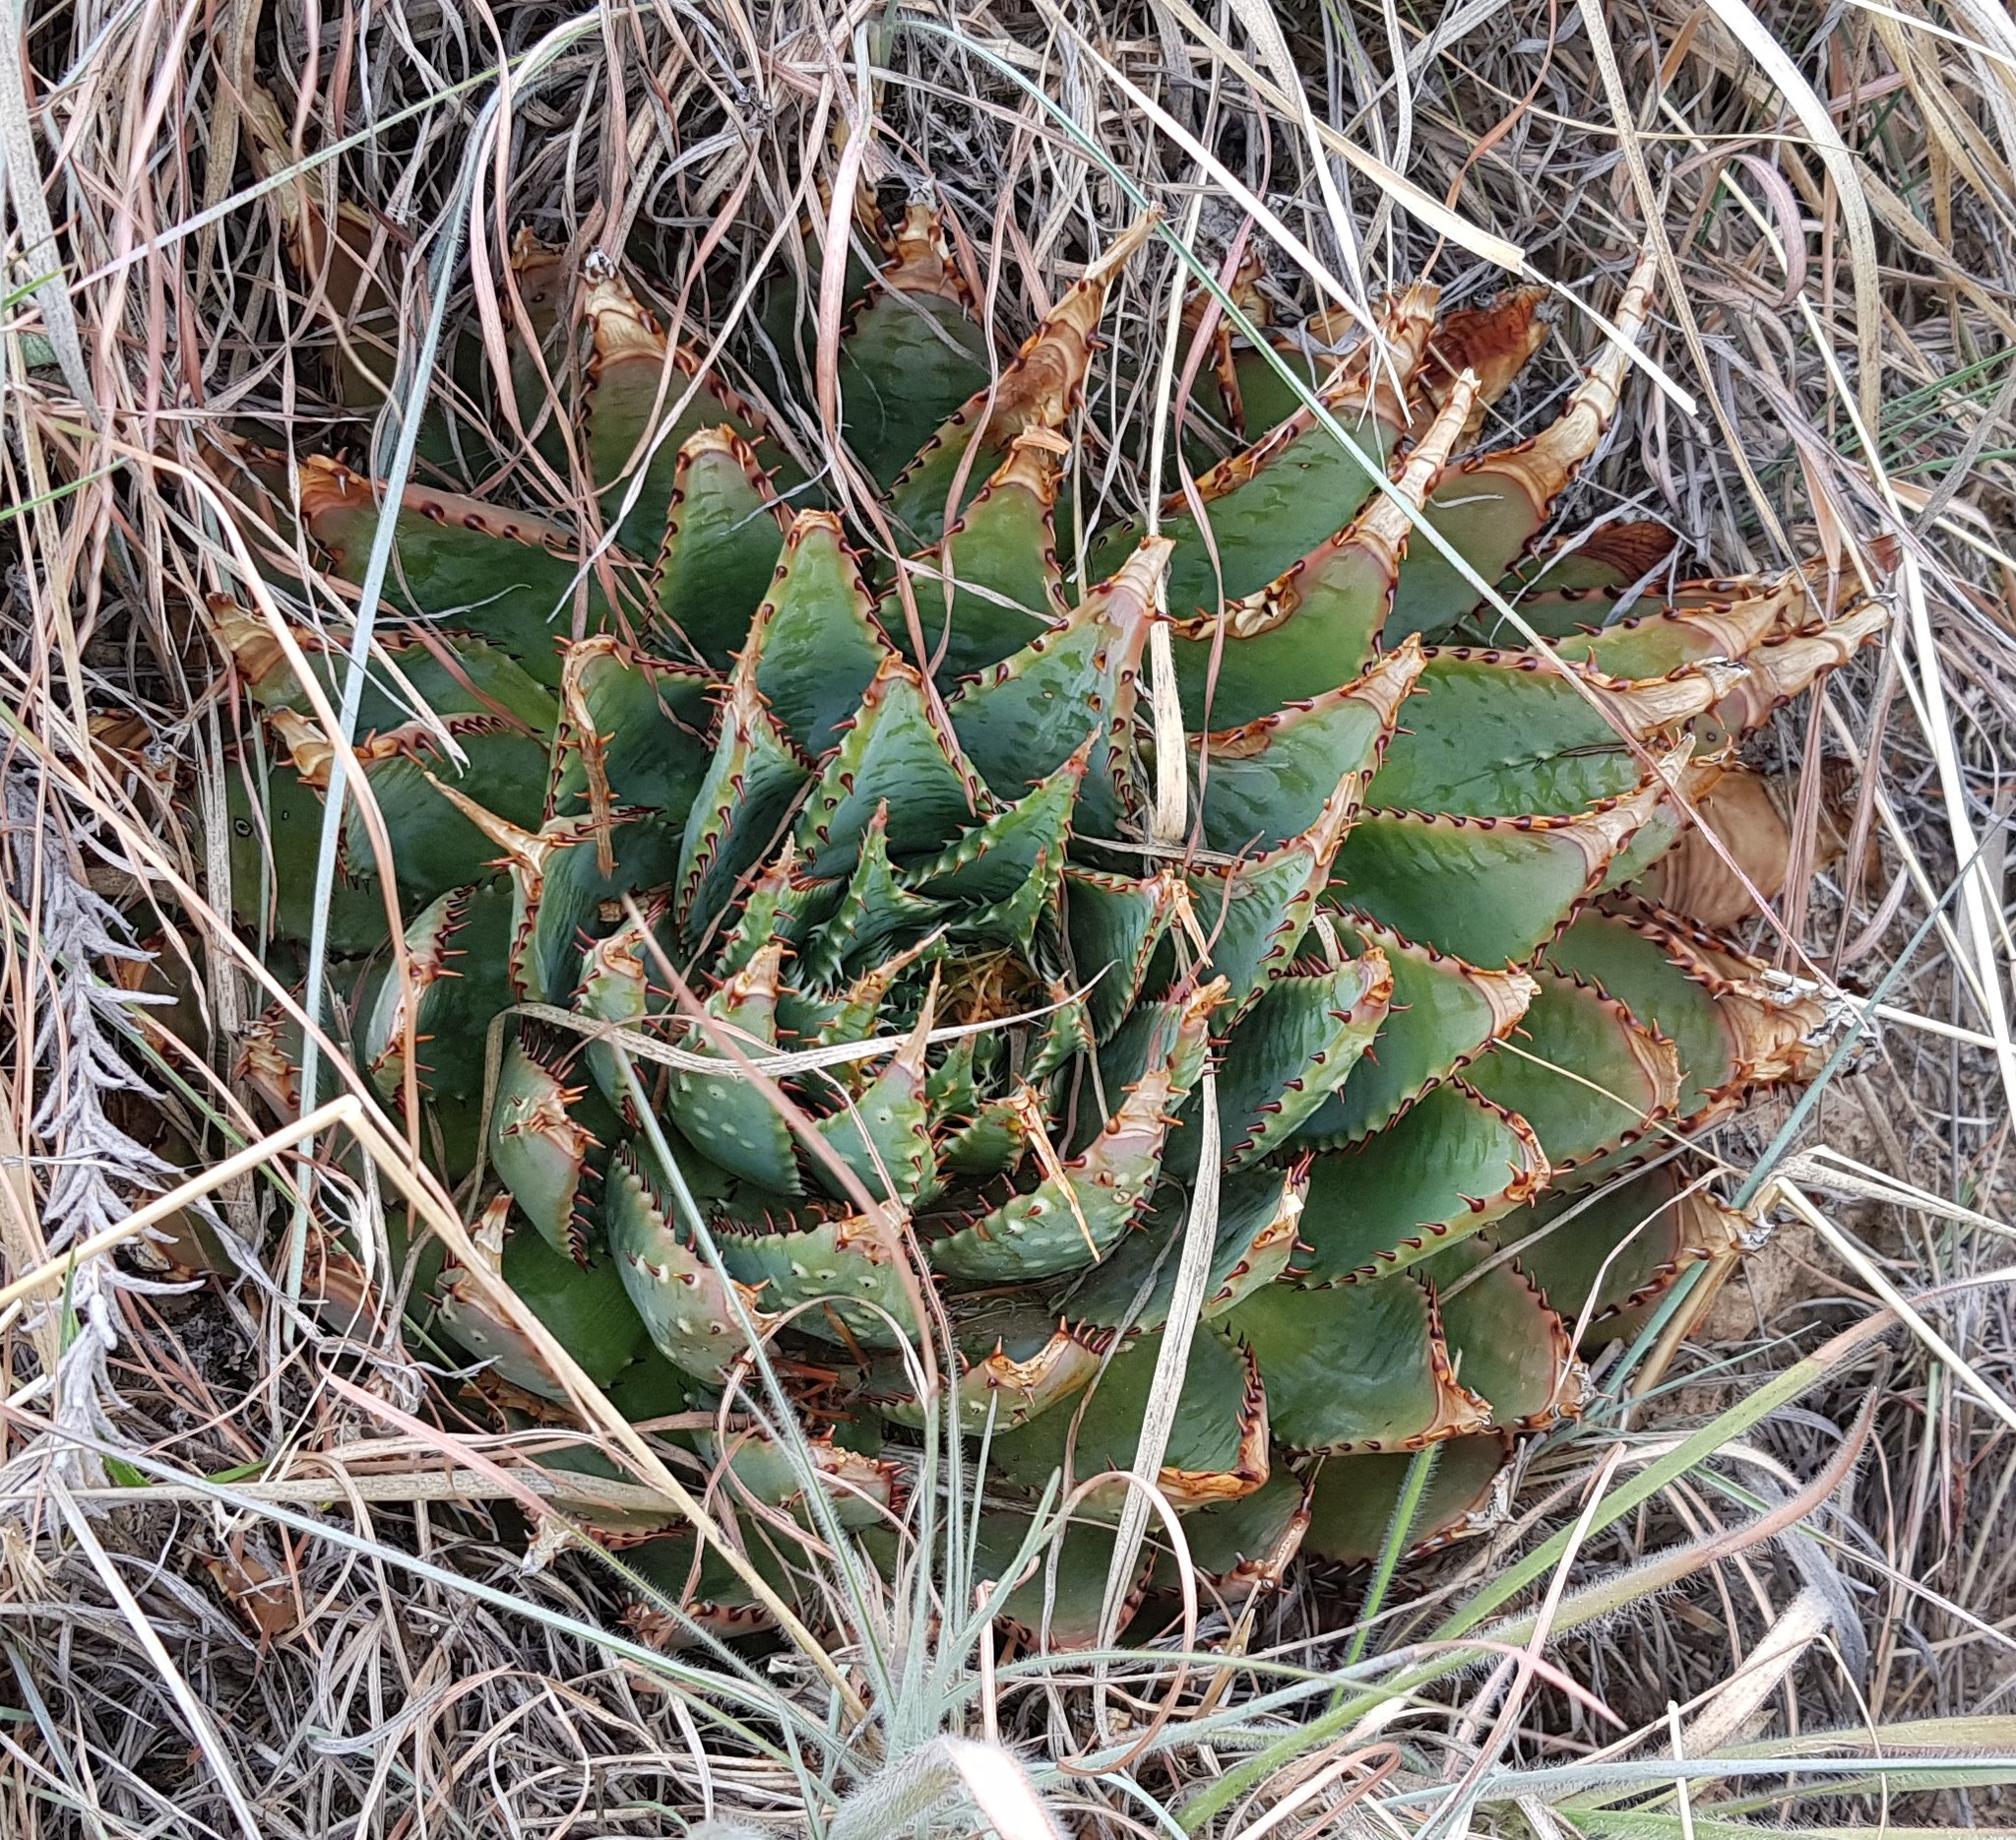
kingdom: Plantae
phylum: Tracheophyta
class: Liliopsida
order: Asparagales
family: Asphodelaceae
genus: Aloe
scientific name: Aloe pratensis
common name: Meadow aloe
